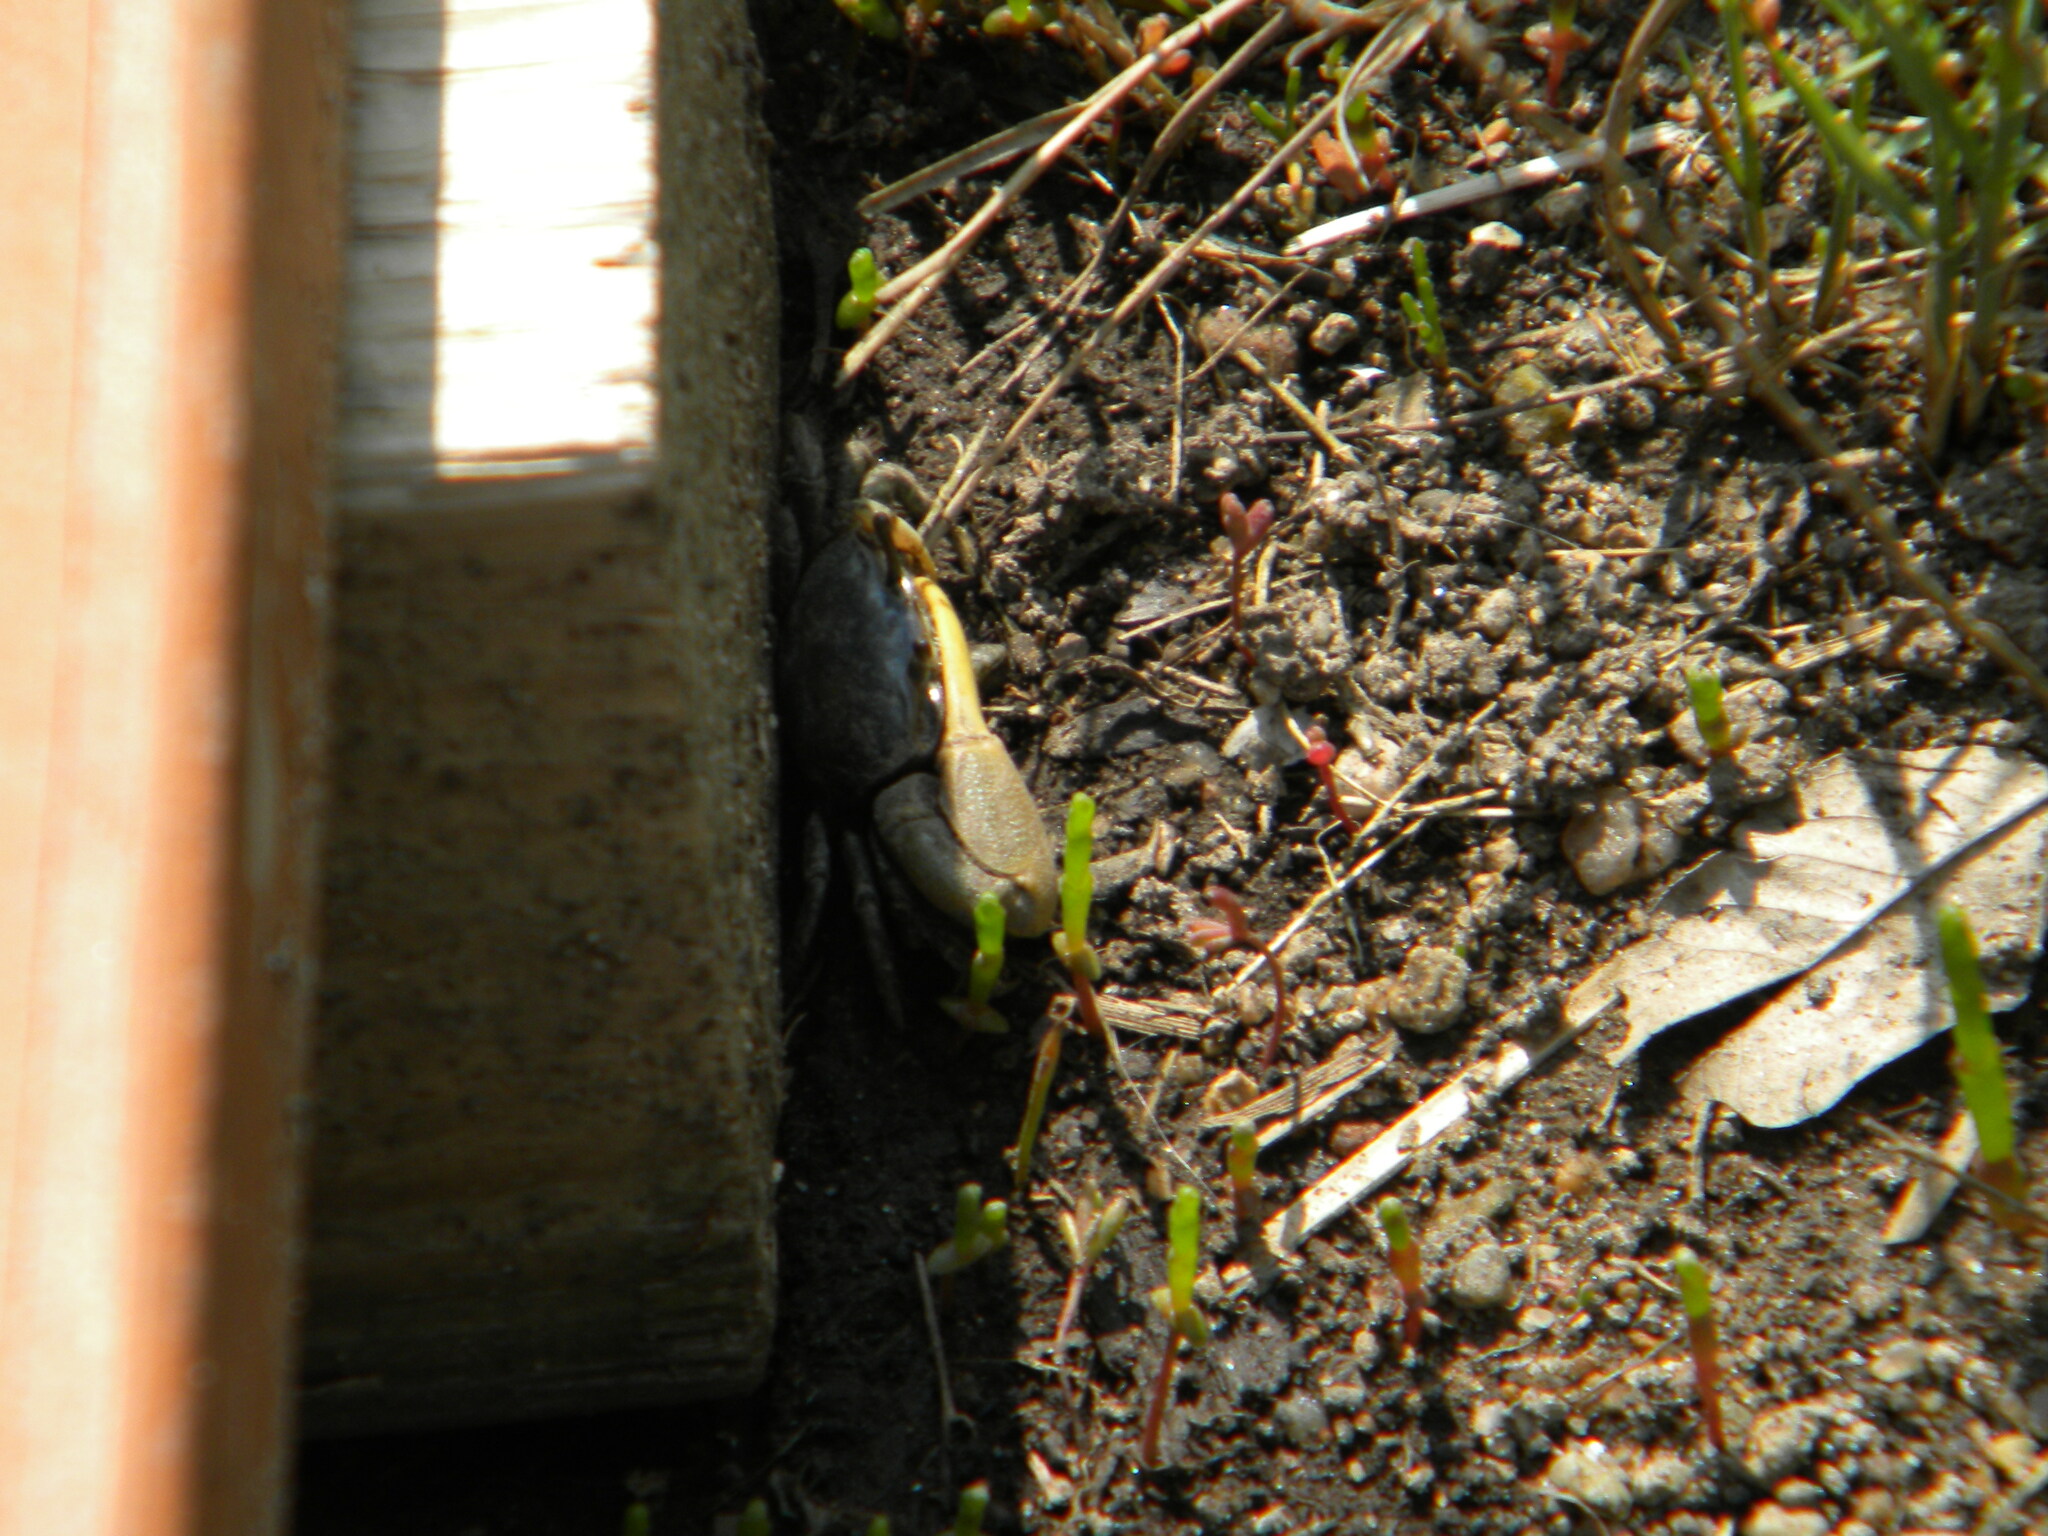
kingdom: Animalia
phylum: Arthropoda
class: Malacostraca
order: Decapoda
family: Ocypodidae
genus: Minuca
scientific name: Minuca pugnax
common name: Mud fiddler crab
